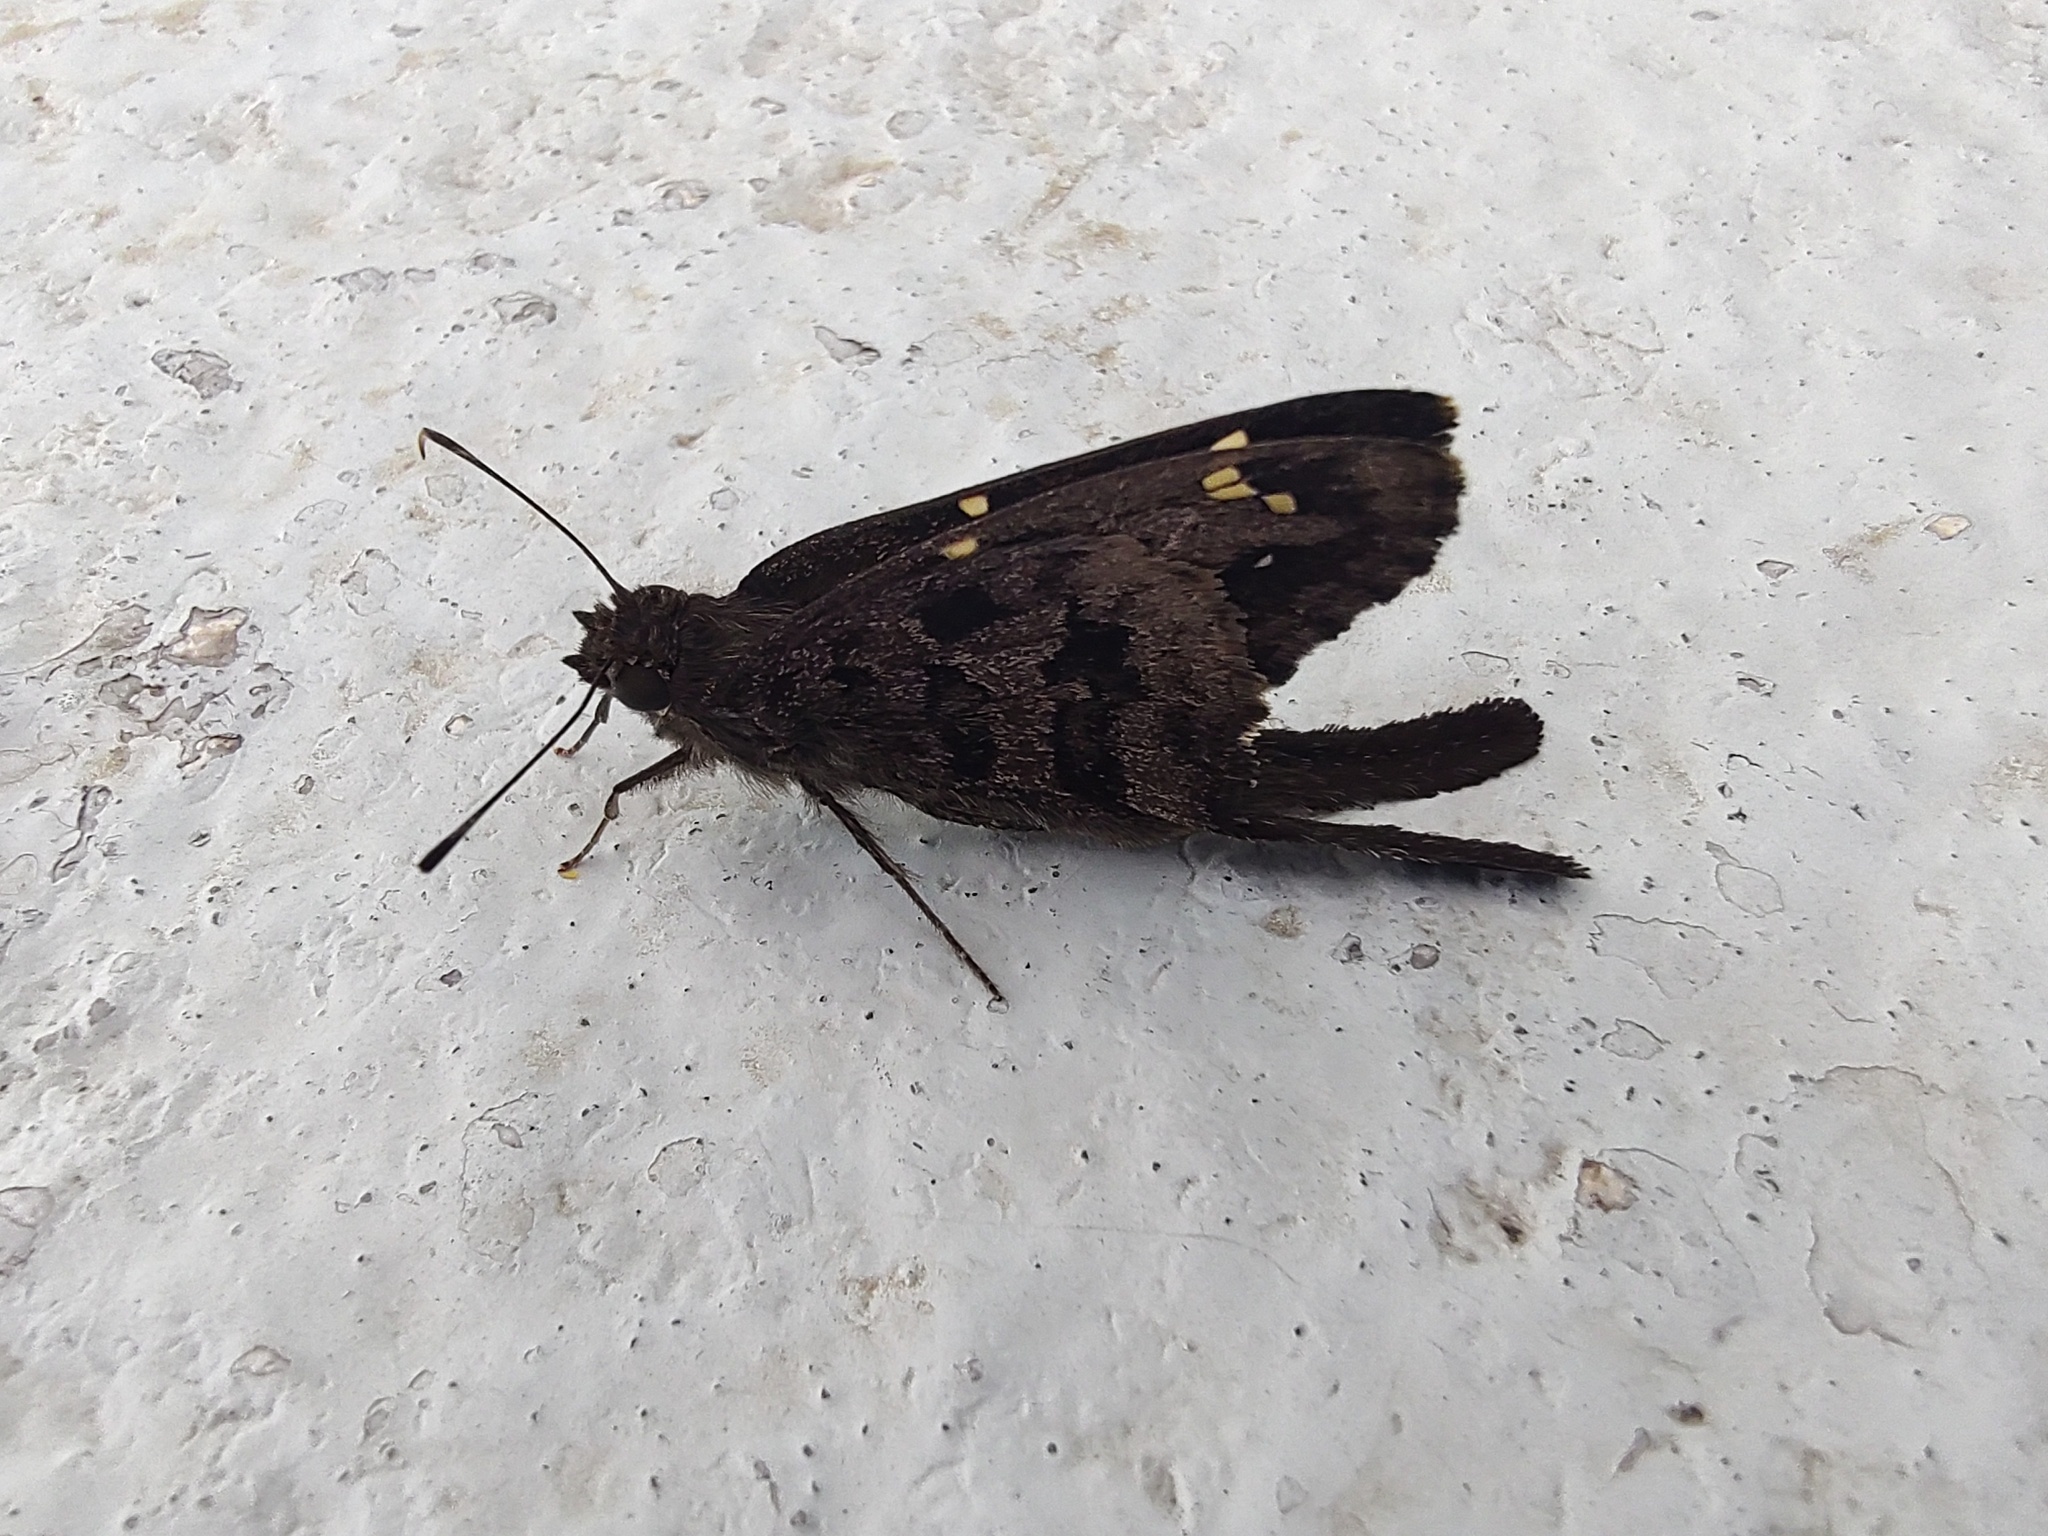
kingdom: Animalia
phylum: Arthropoda
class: Insecta
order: Lepidoptera
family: Hesperiidae
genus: Thorybes
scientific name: Thorybes
